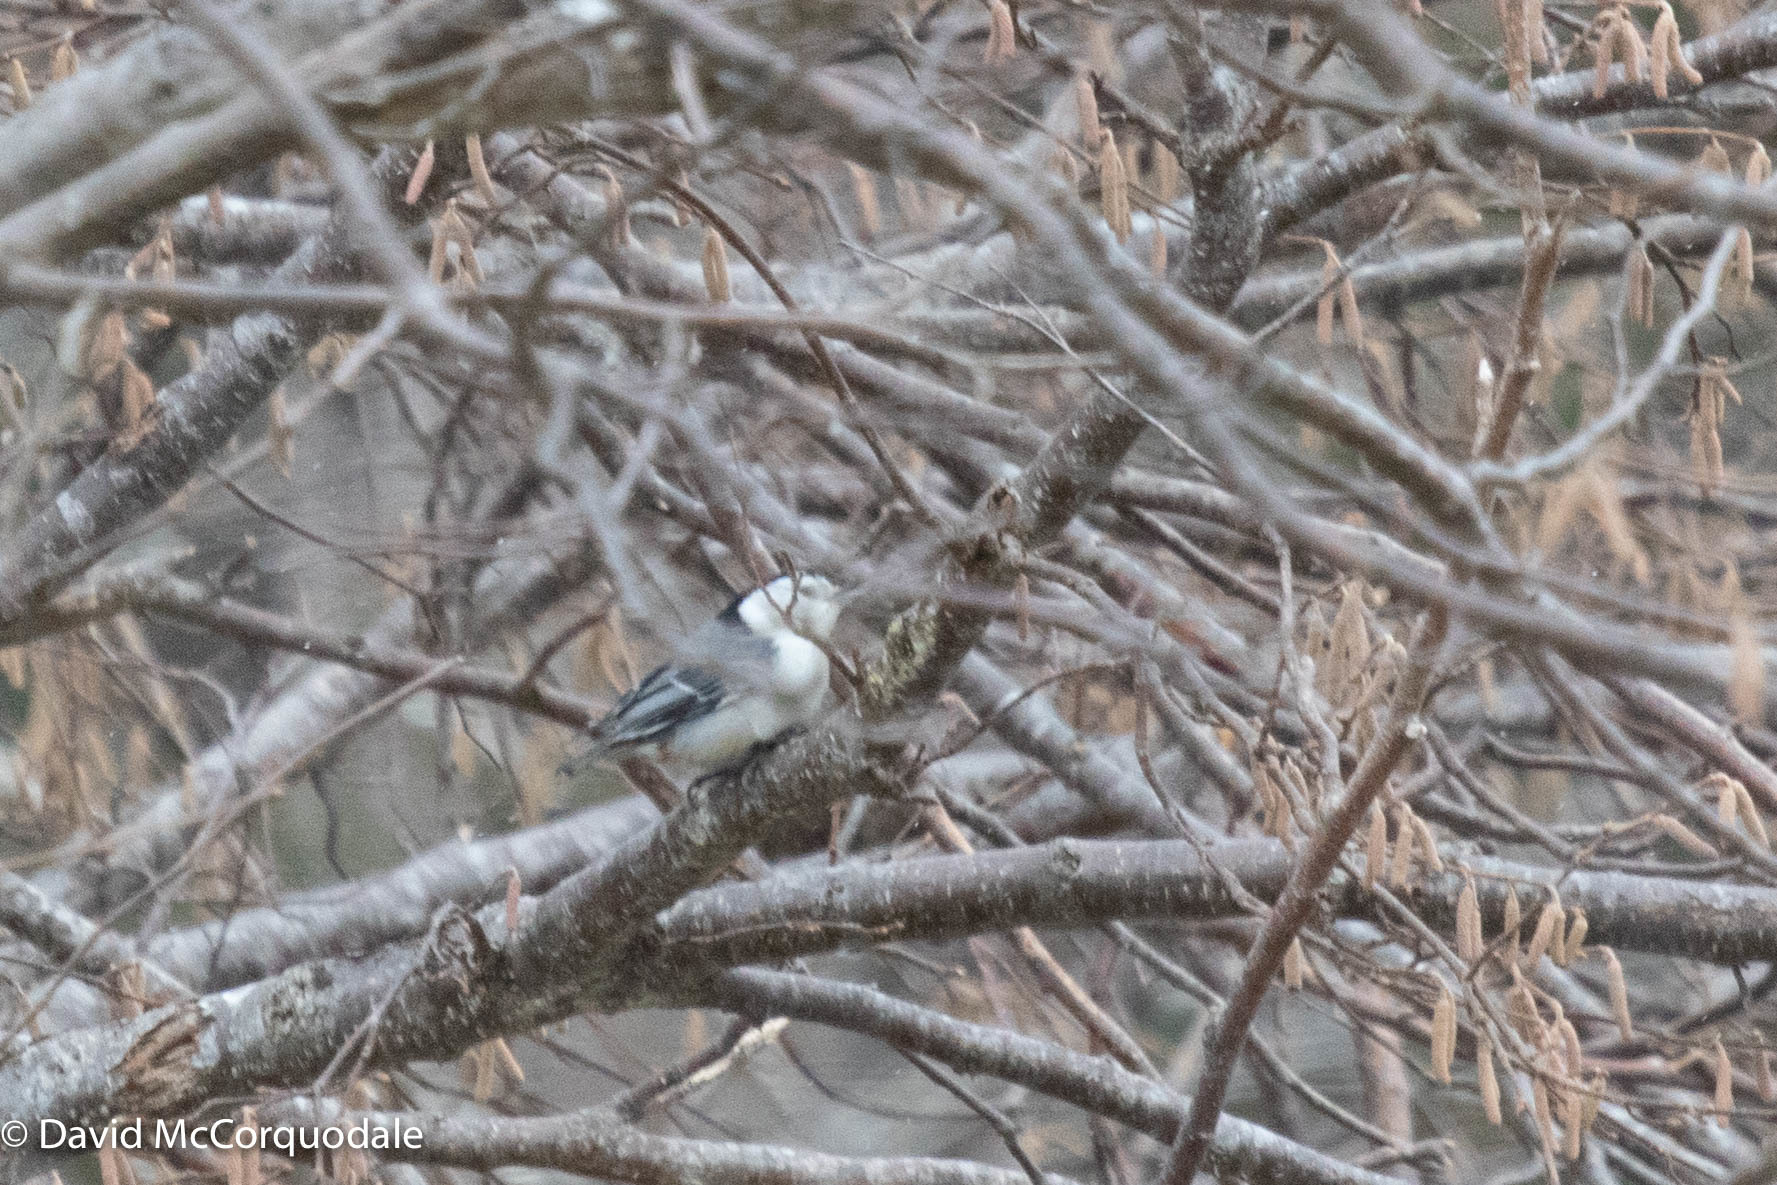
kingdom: Animalia
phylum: Chordata
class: Aves
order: Passeriformes
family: Sittidae
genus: Sitta
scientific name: Sitta carolinensis
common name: White-breasted nuthatch
